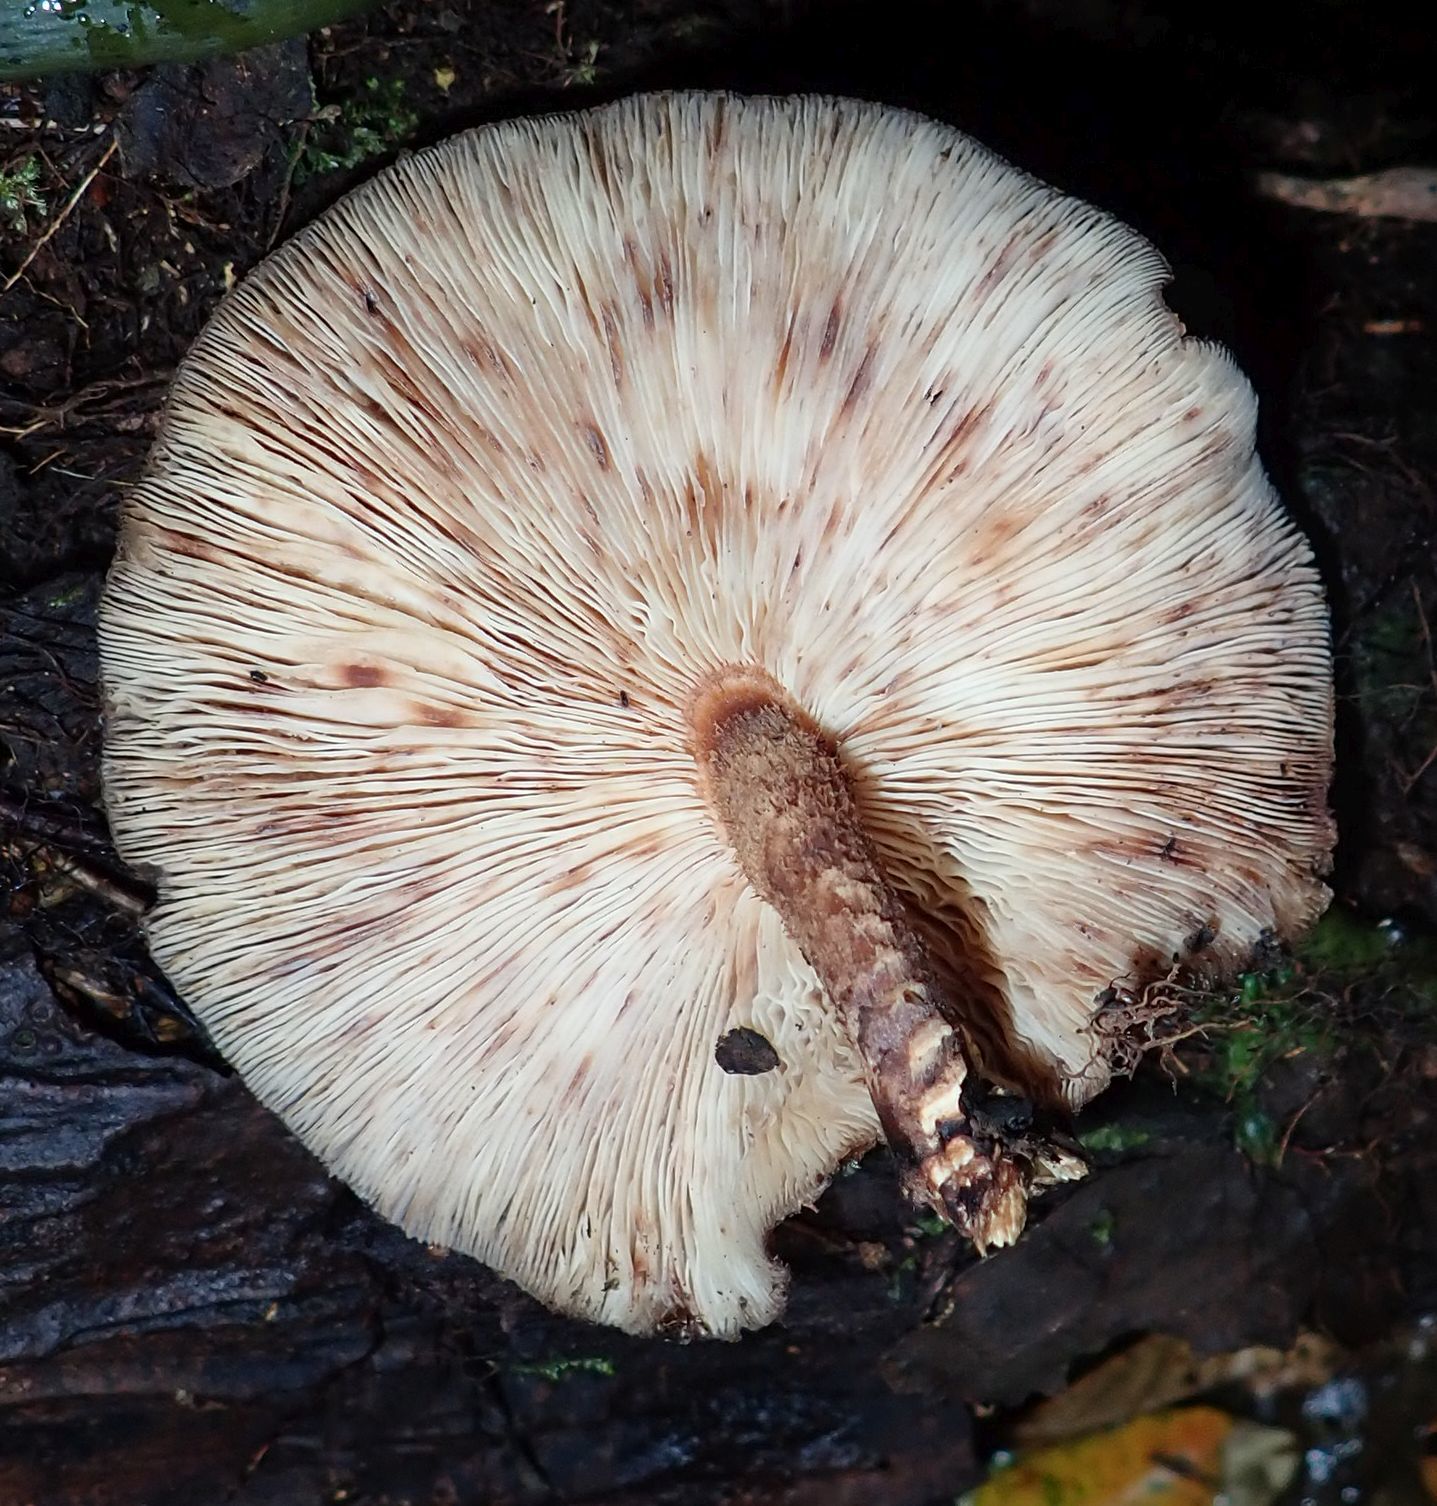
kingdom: Fungi
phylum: Basidiomycota
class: Agaricomycetes
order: Agaricales
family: Omphalotaceae
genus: Lentinula
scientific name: Lentinula novae-zelandiae
